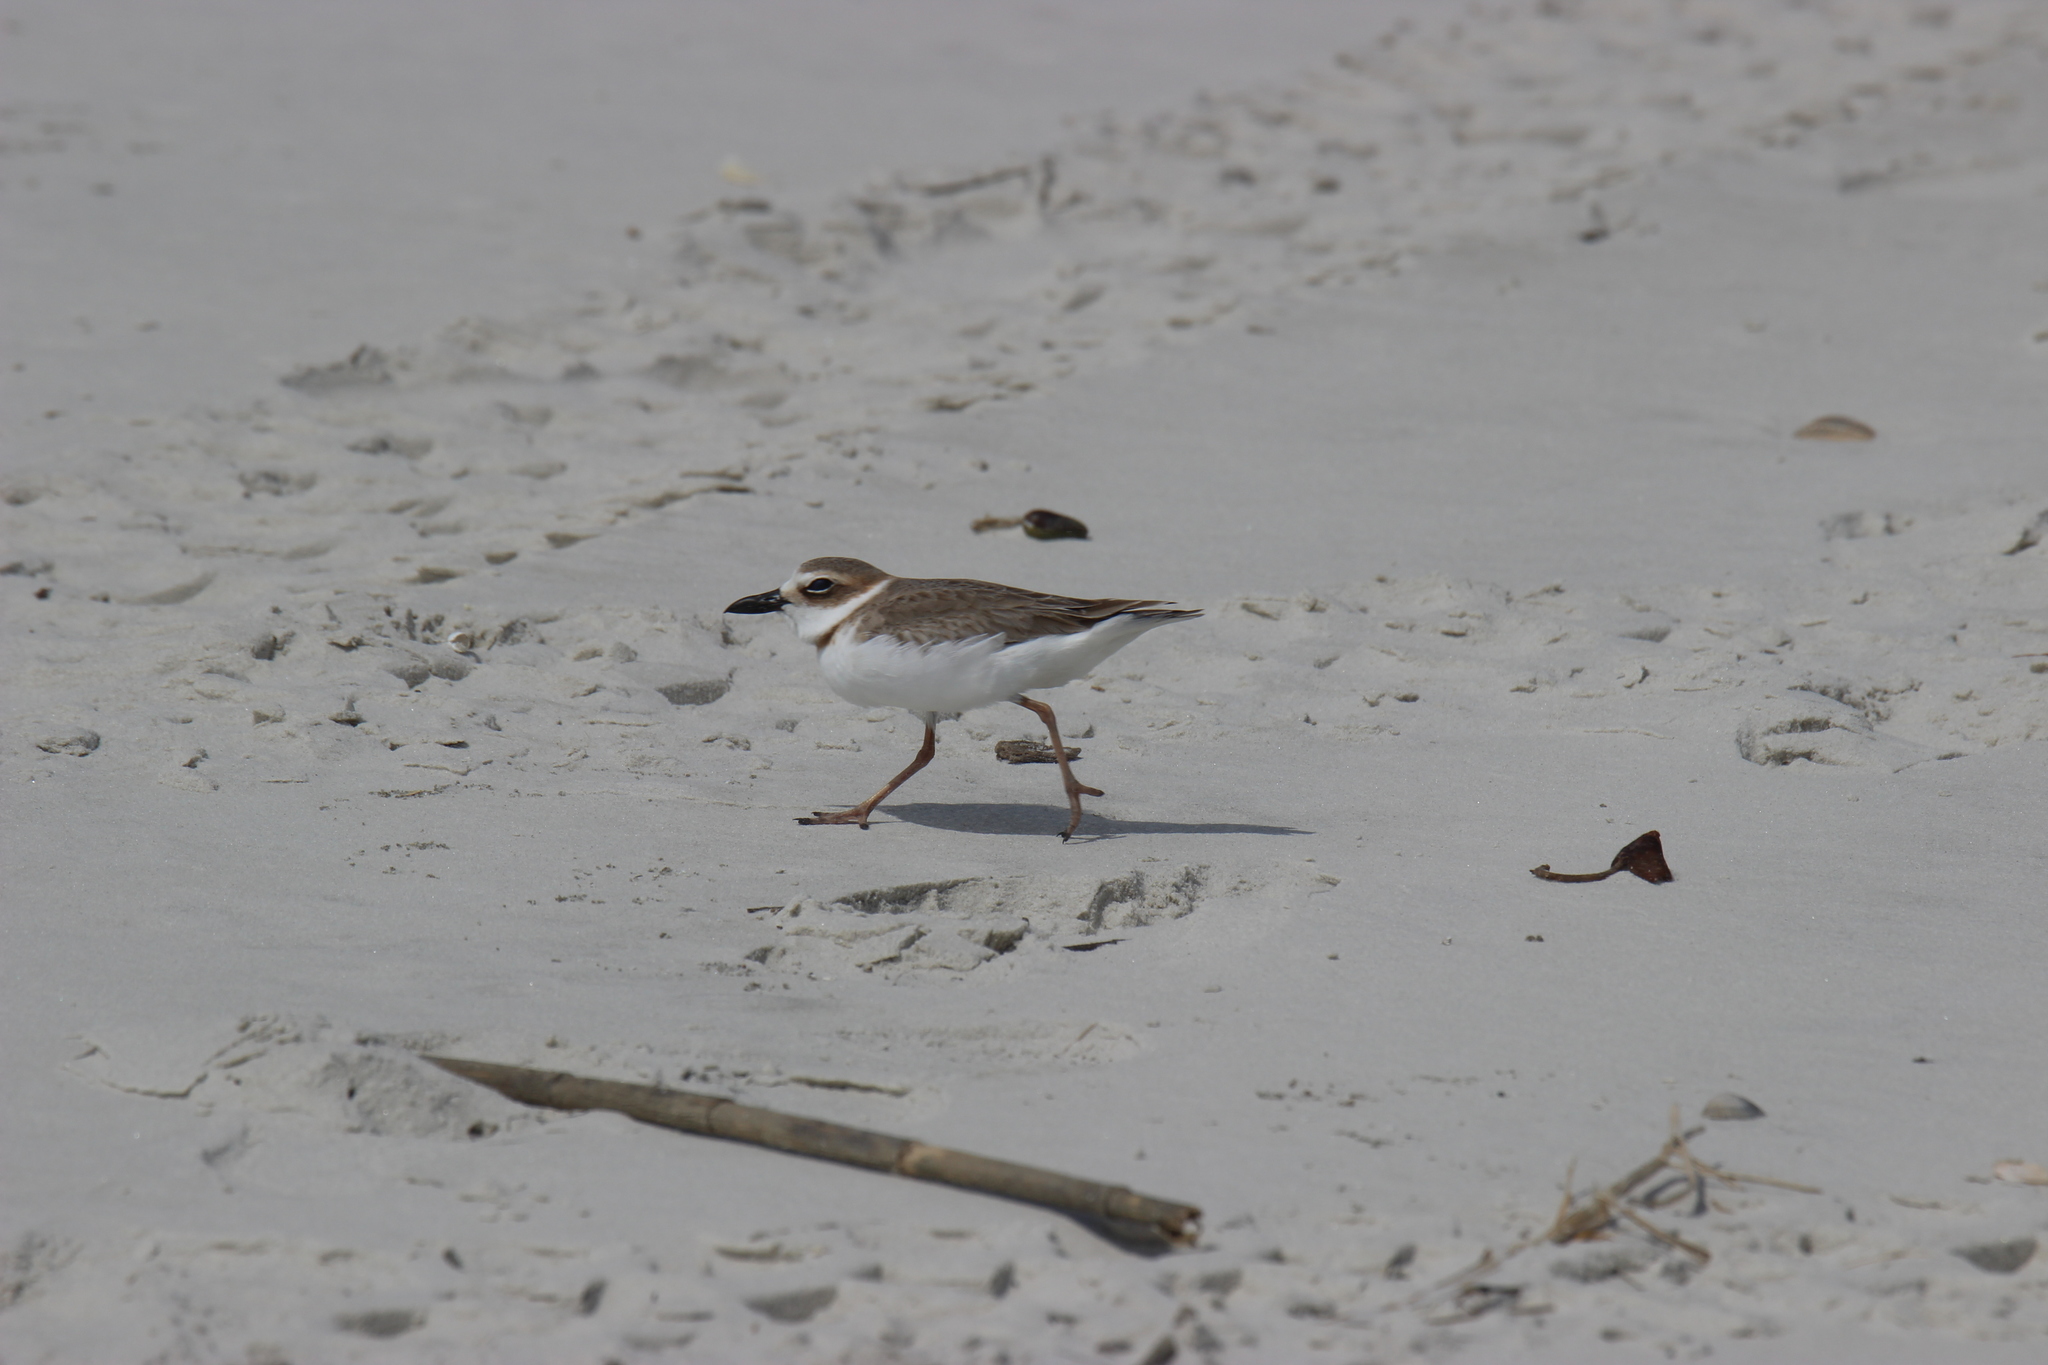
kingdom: Animalia
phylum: Chordata
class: Aves
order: Charadriiformes
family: Charadriidae
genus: Anarhynchus
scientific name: Anarhynchus
